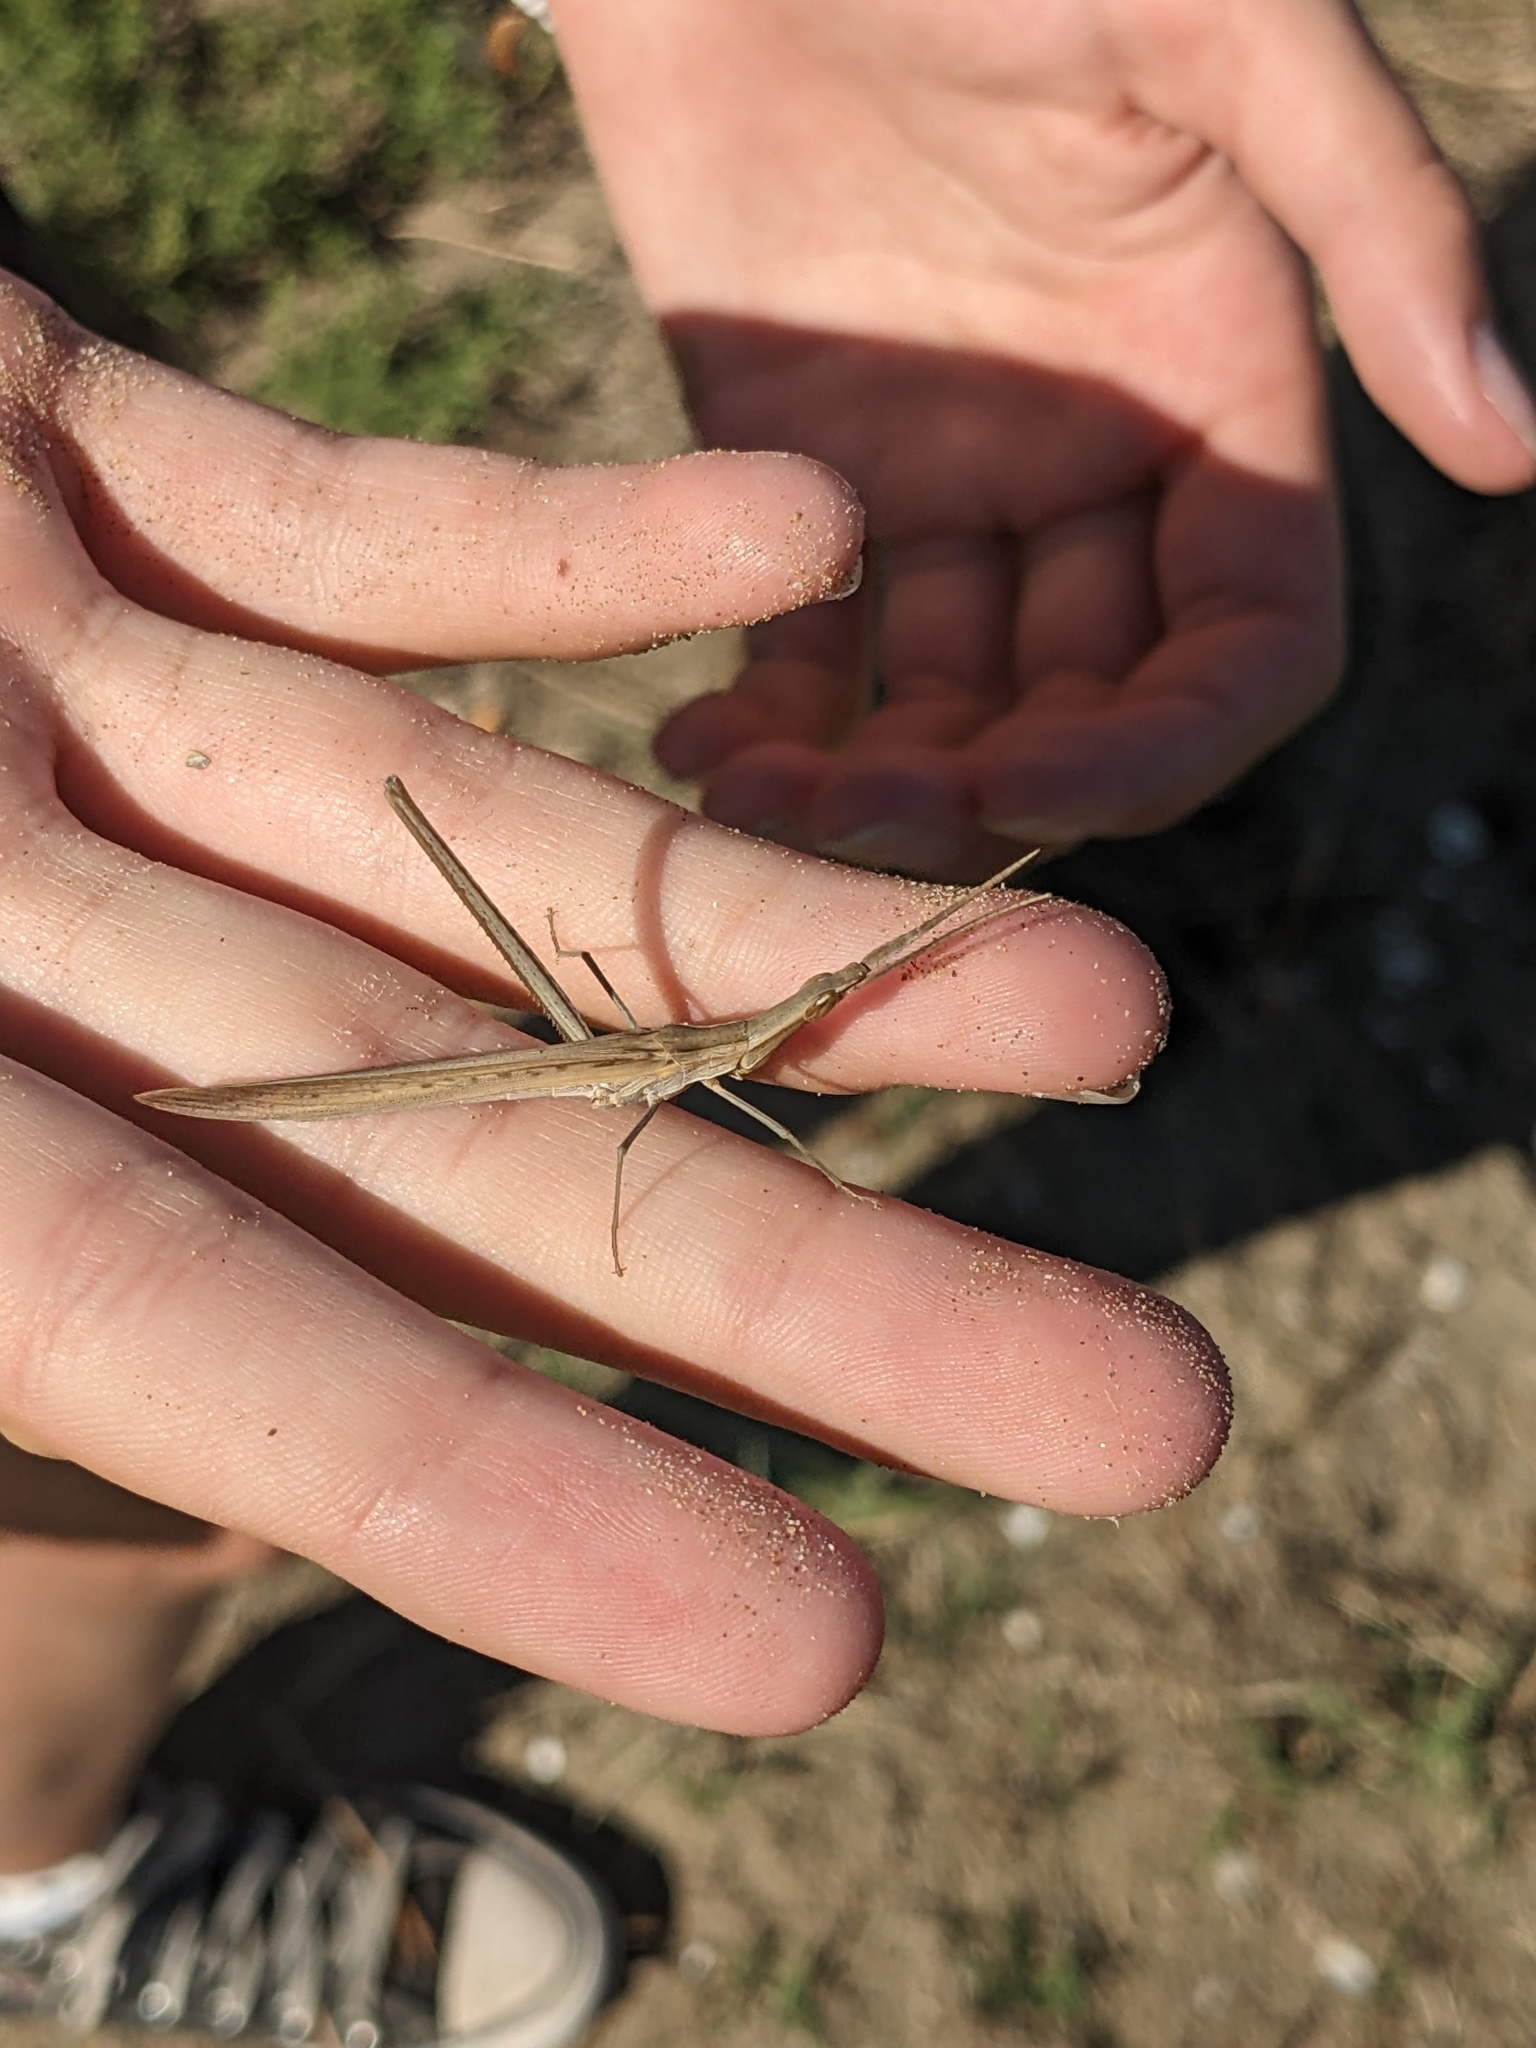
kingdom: Animalia
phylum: Arthropoda
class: Insecta
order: Orthoptera
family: Acrididae
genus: Acrida
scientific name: Acrida ungarica
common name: Common cone-headed grasshopper
